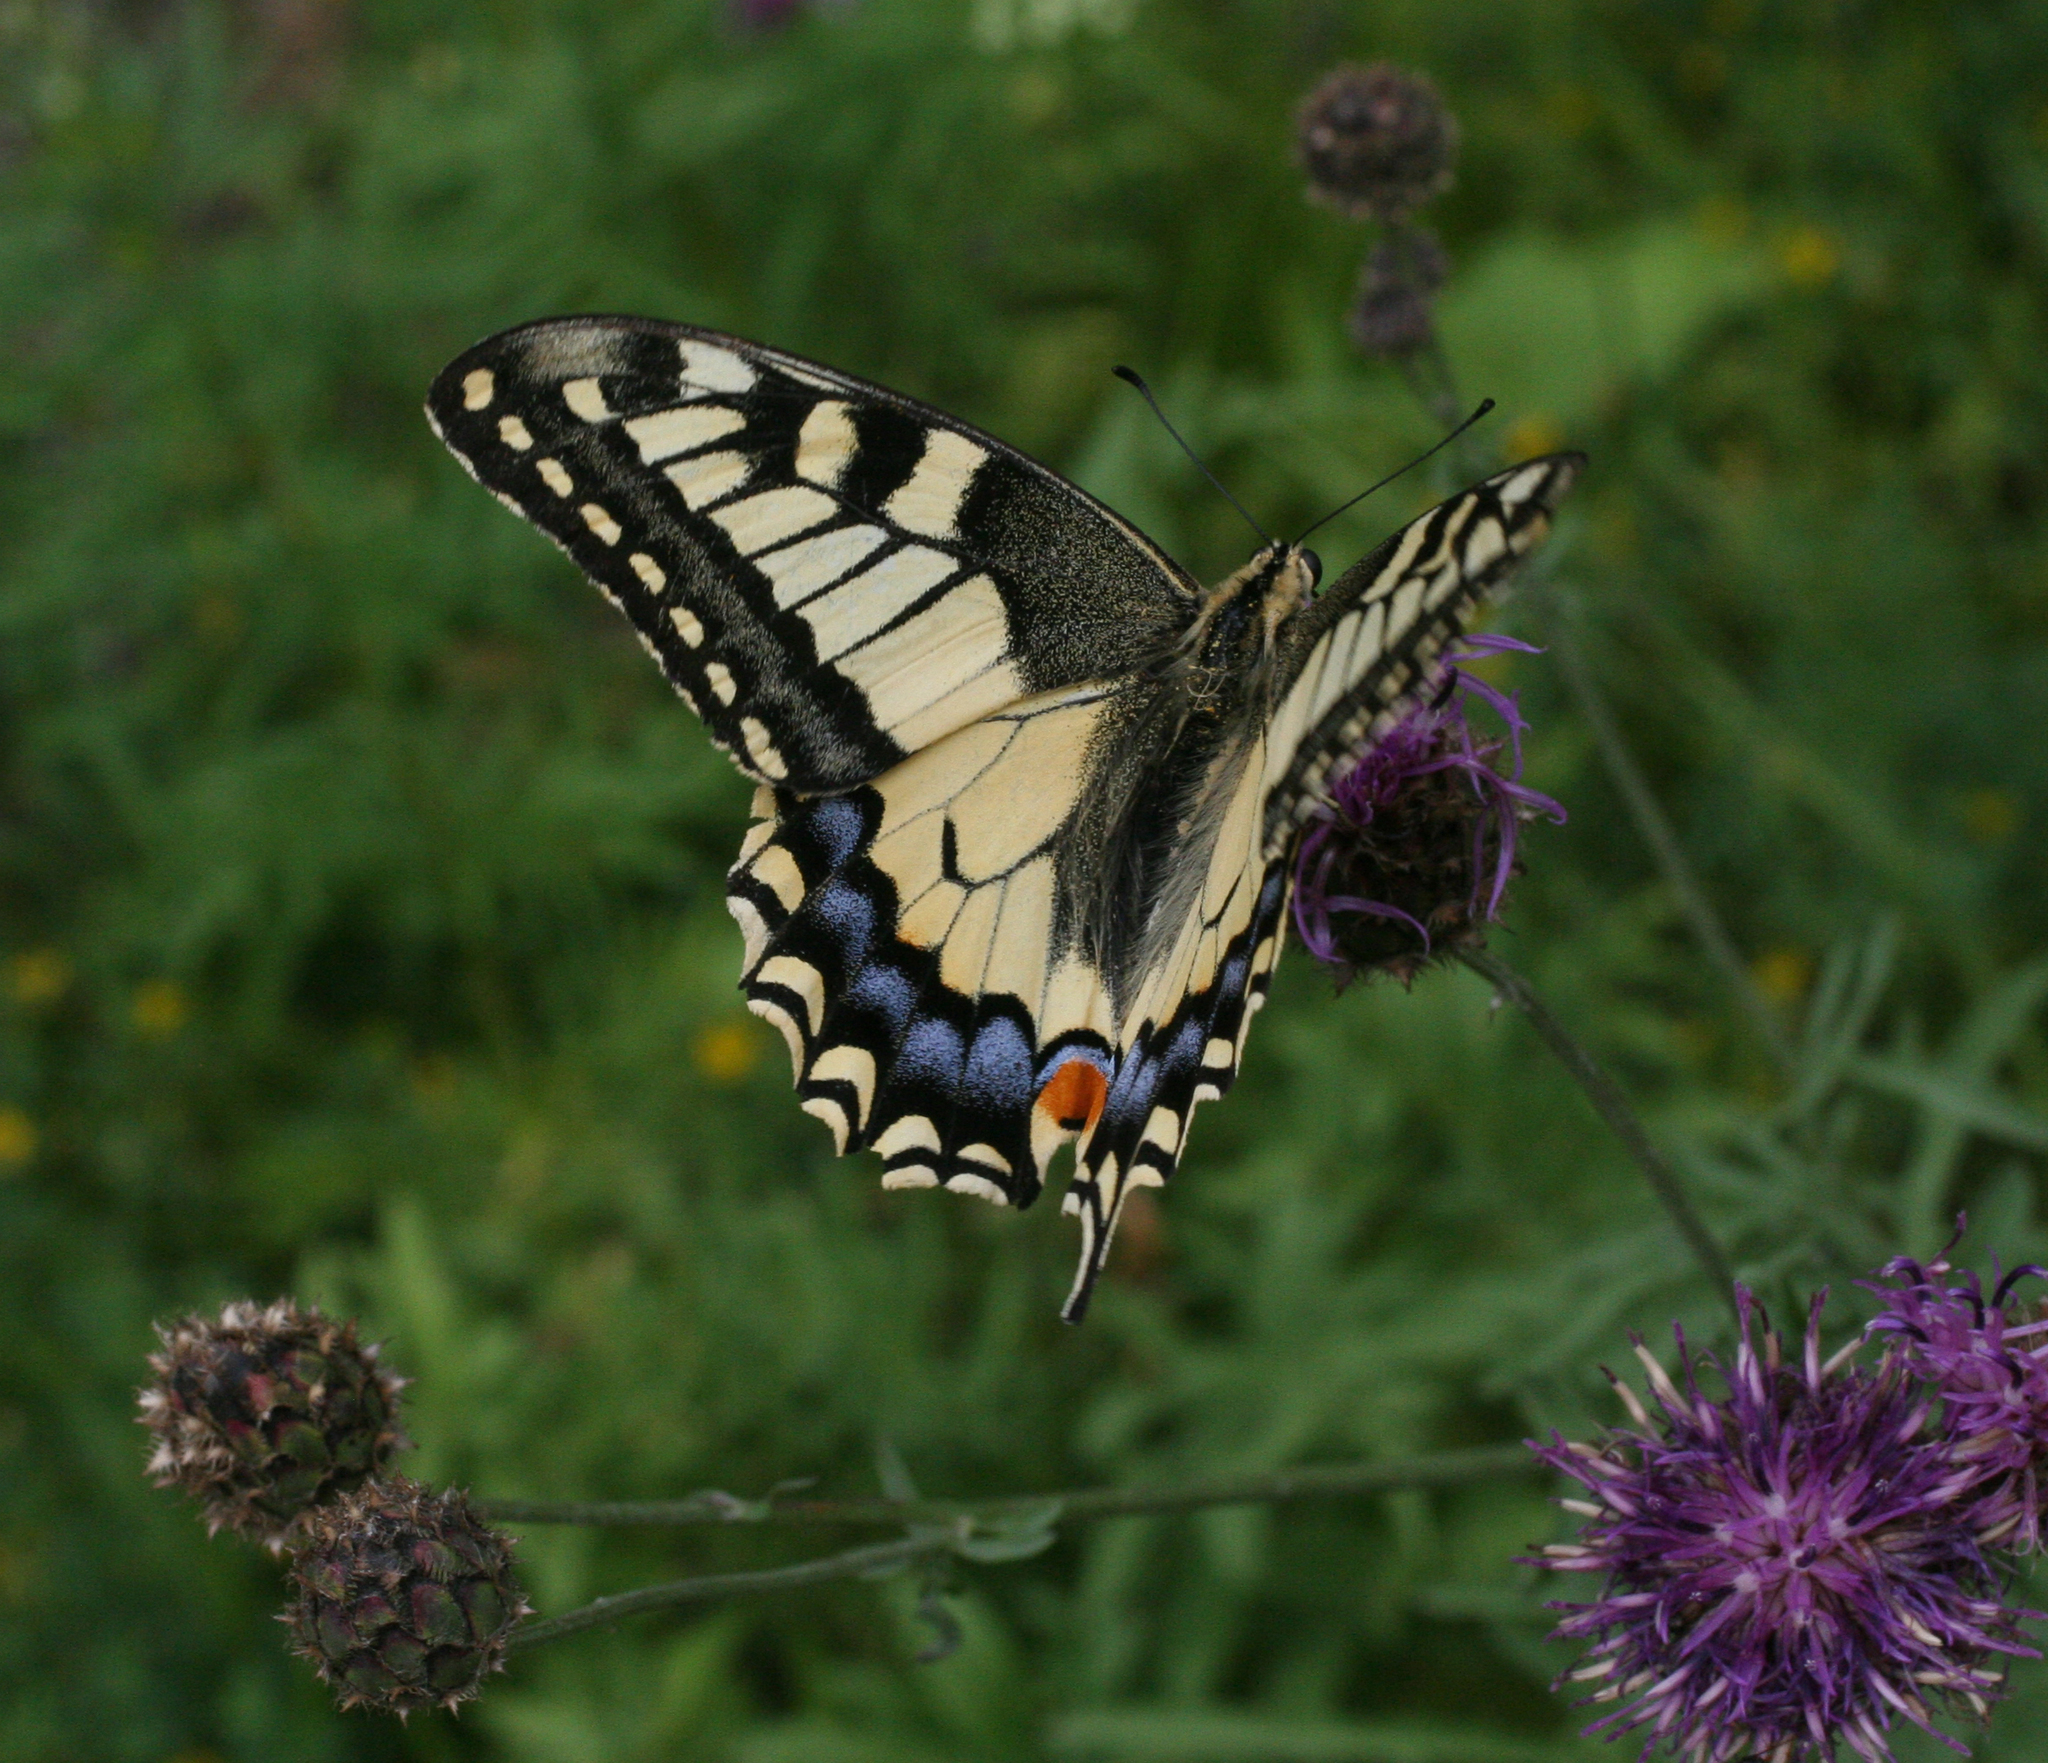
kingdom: Animalia
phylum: Arthropoda
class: Insecta
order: Lepidoptera
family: Papilionidae
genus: Papilio
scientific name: Papilio machaon
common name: Swallowtail
